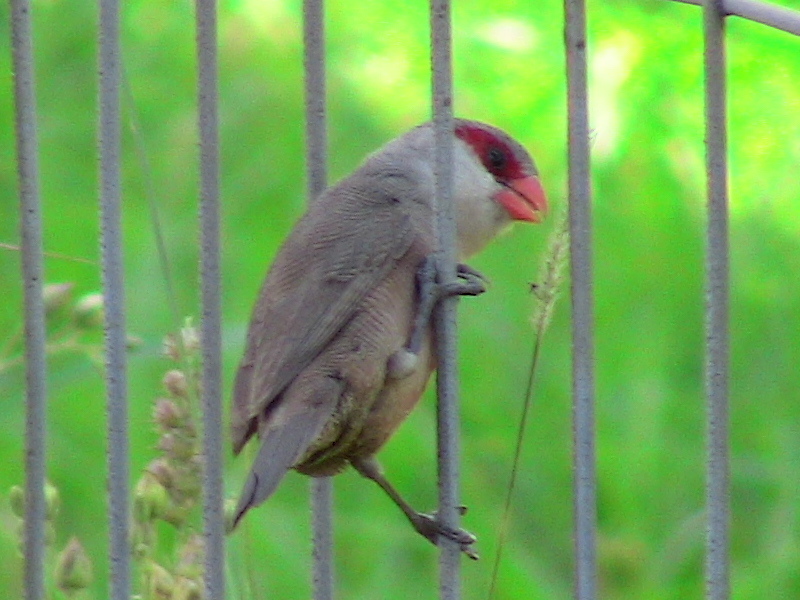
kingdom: Animalia
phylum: Chordata
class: Aves
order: Passeriformes
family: Estrildidae
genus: Estrilda
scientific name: Estrilda astrild
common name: Common waxbill
